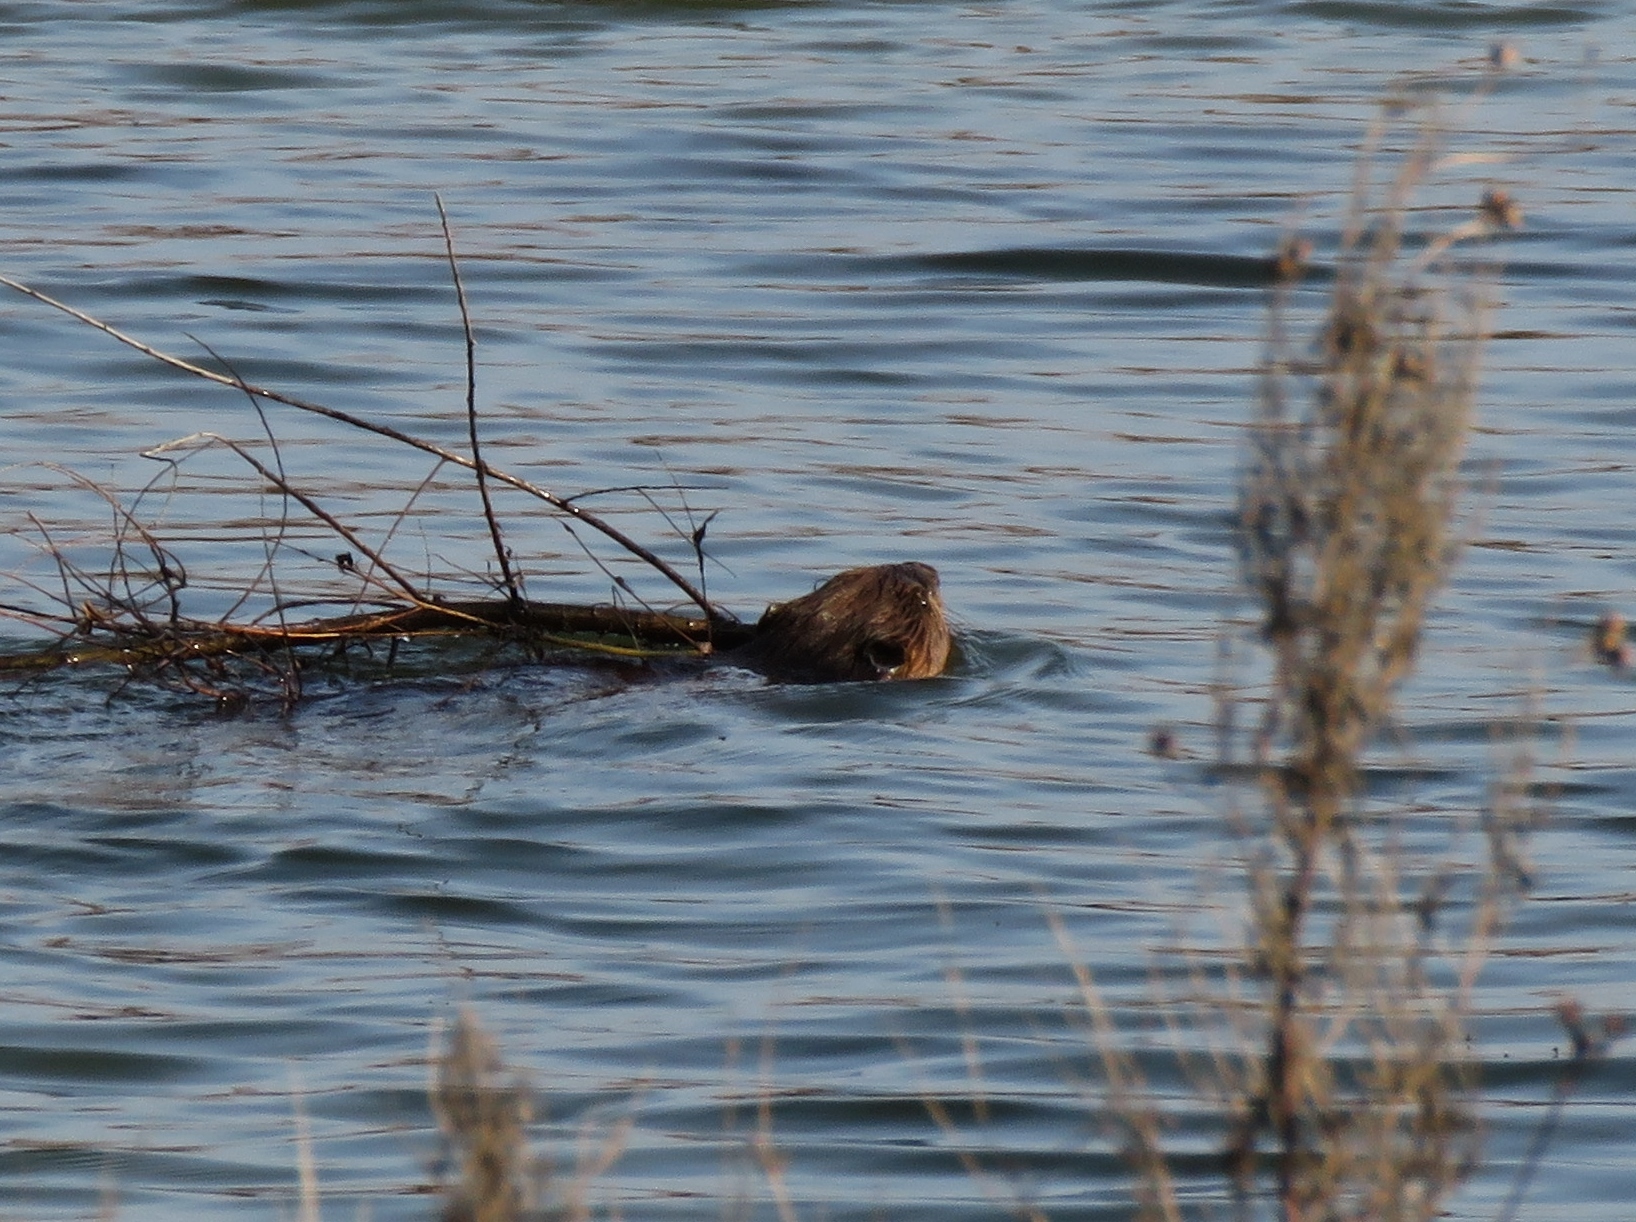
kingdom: Animalia
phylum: Chordata
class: Mammalia
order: Rodentia
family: Castoridae
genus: Castor
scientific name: Castor canadensis
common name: American beaver
